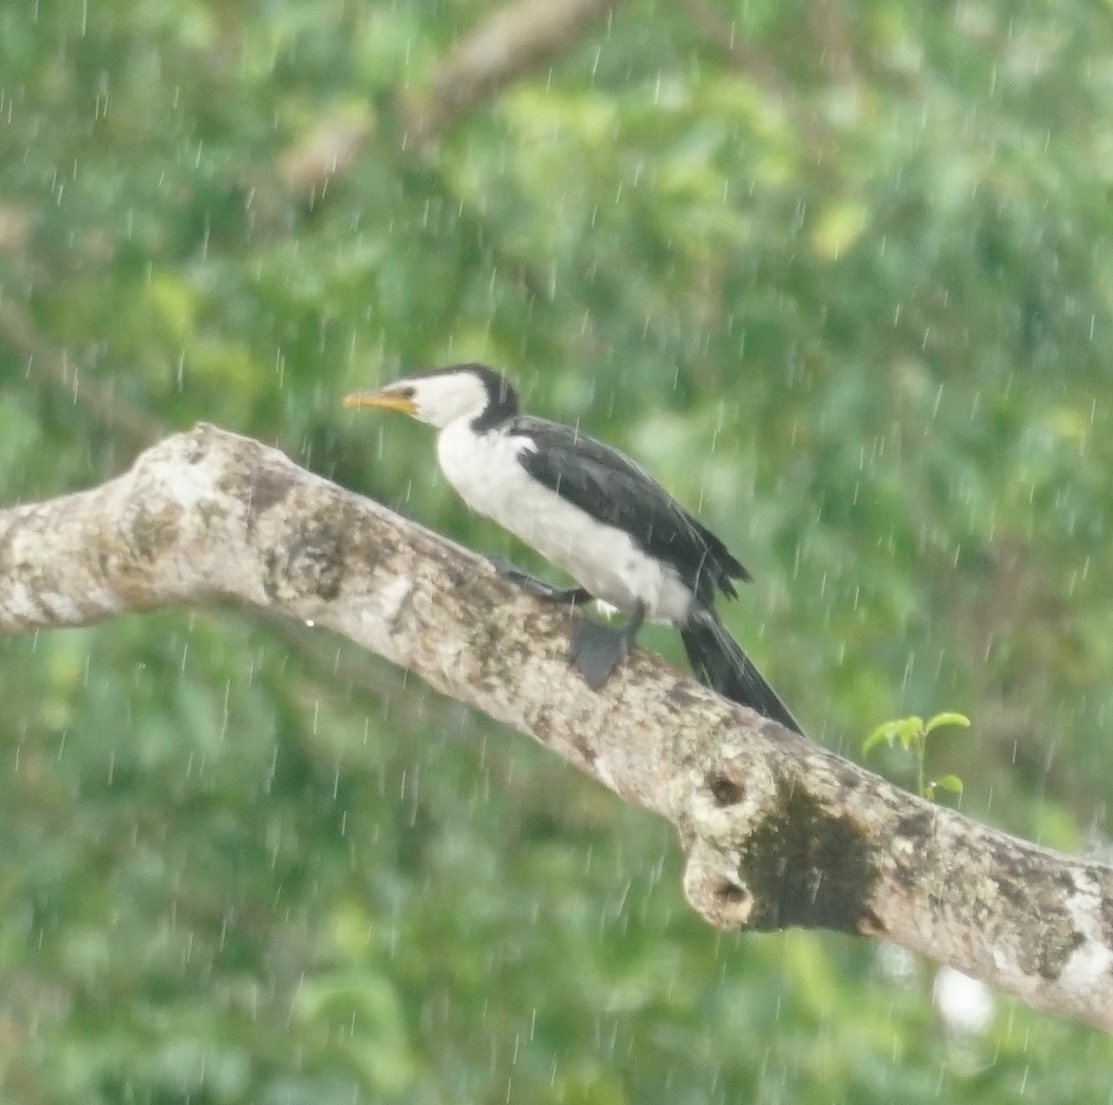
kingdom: Animalia
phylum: Chordata
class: Aves
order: Suliformes
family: Phalacrocoracidae
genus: Microcarbo
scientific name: Microcarbo melanoleucos
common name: Little pied cormorant
